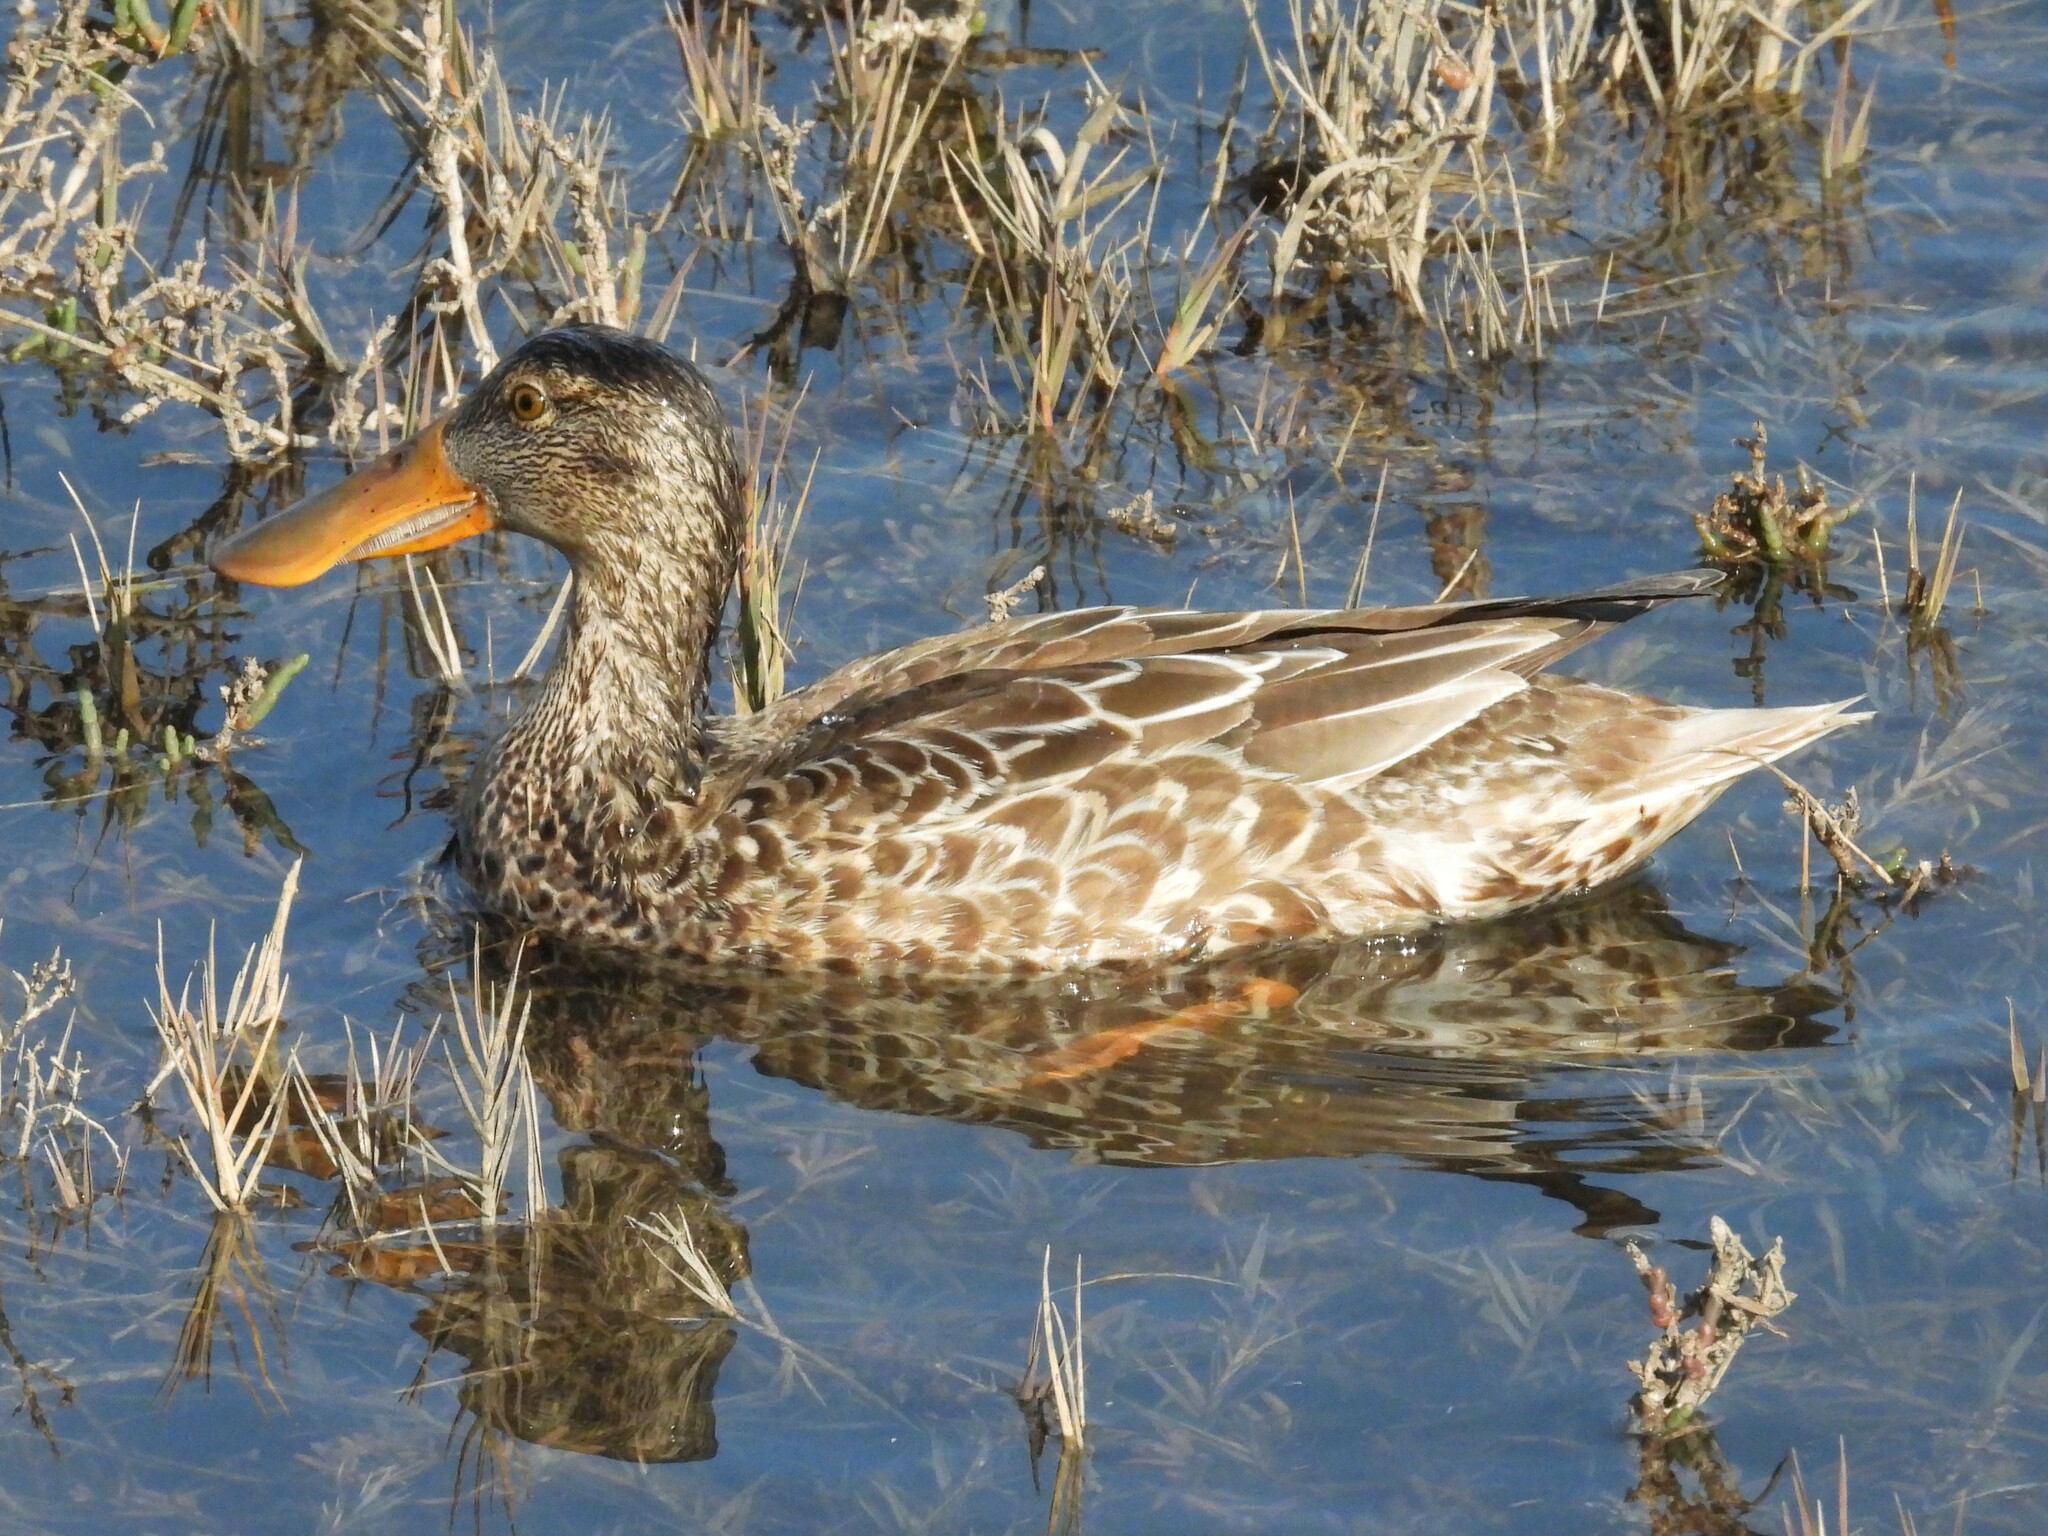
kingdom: Animalia
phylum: Chordata
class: Aves
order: Anseriformes
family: Anatidae
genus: Spatula
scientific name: Spatula clypeata
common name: Northern shoveler
